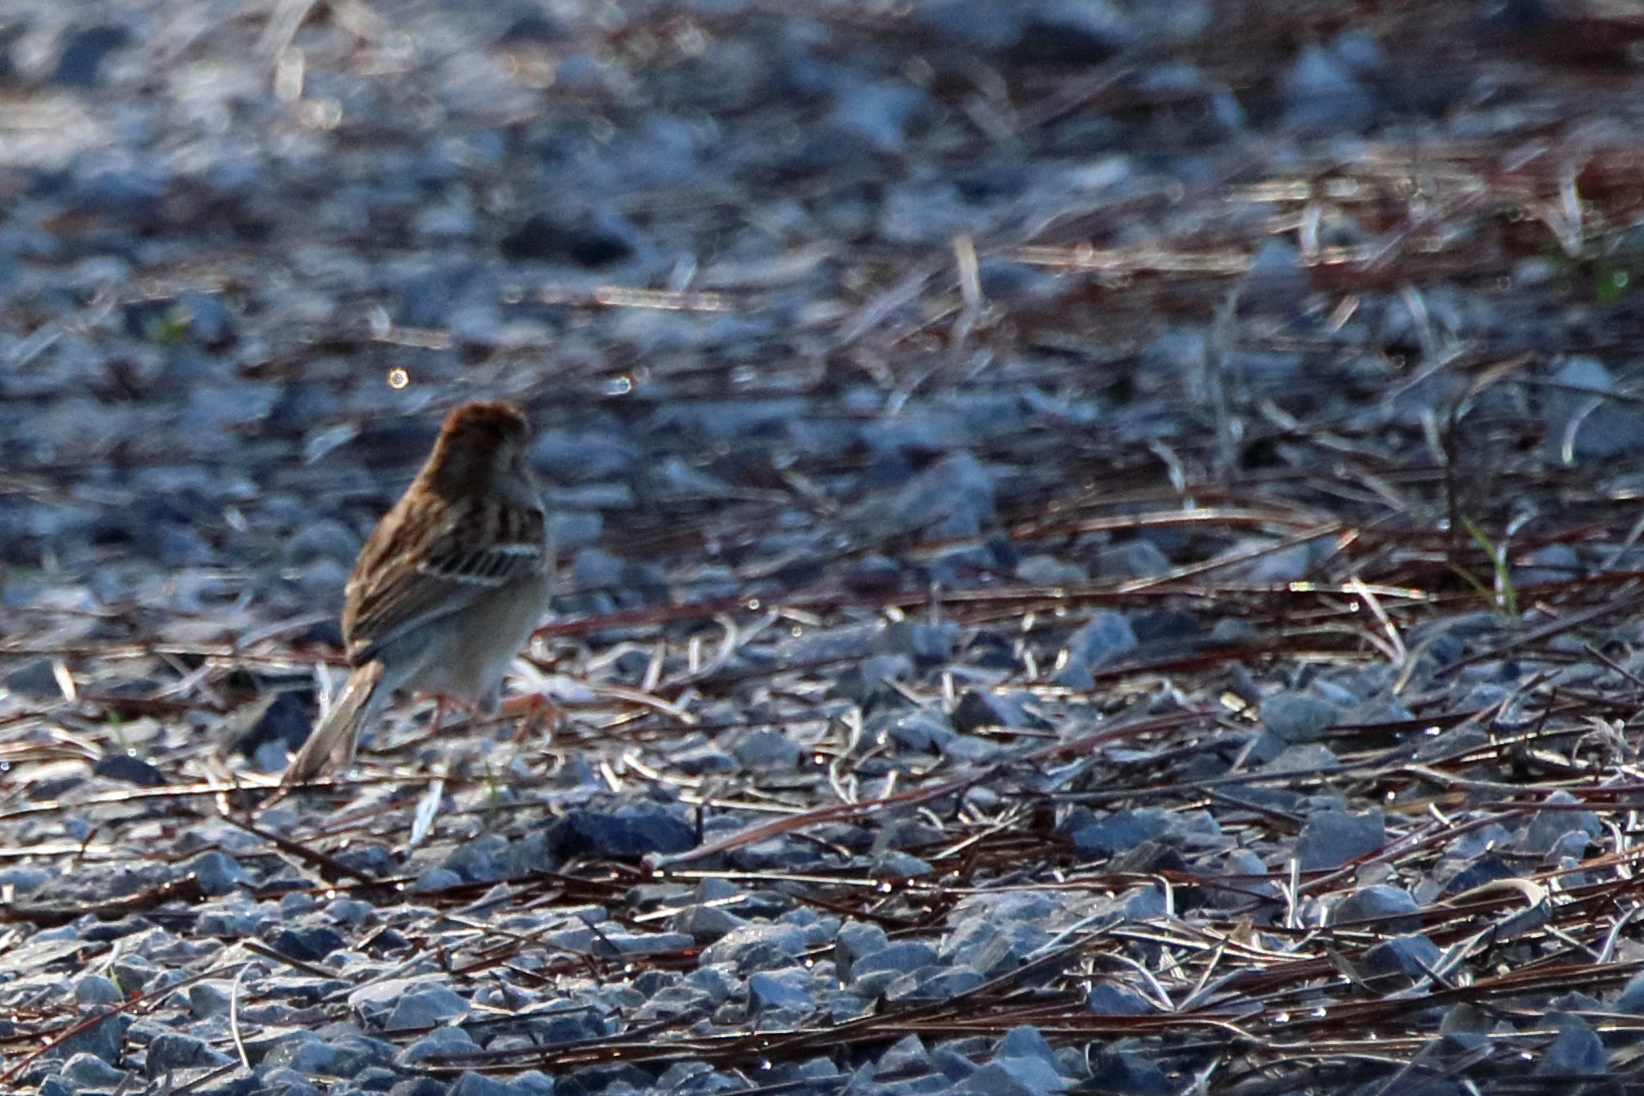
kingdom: Animalia
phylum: Chordata
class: Aves
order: Passeriformes
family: Passerellidae
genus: Spizella
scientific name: Spizella pusilla
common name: Field sparrow
